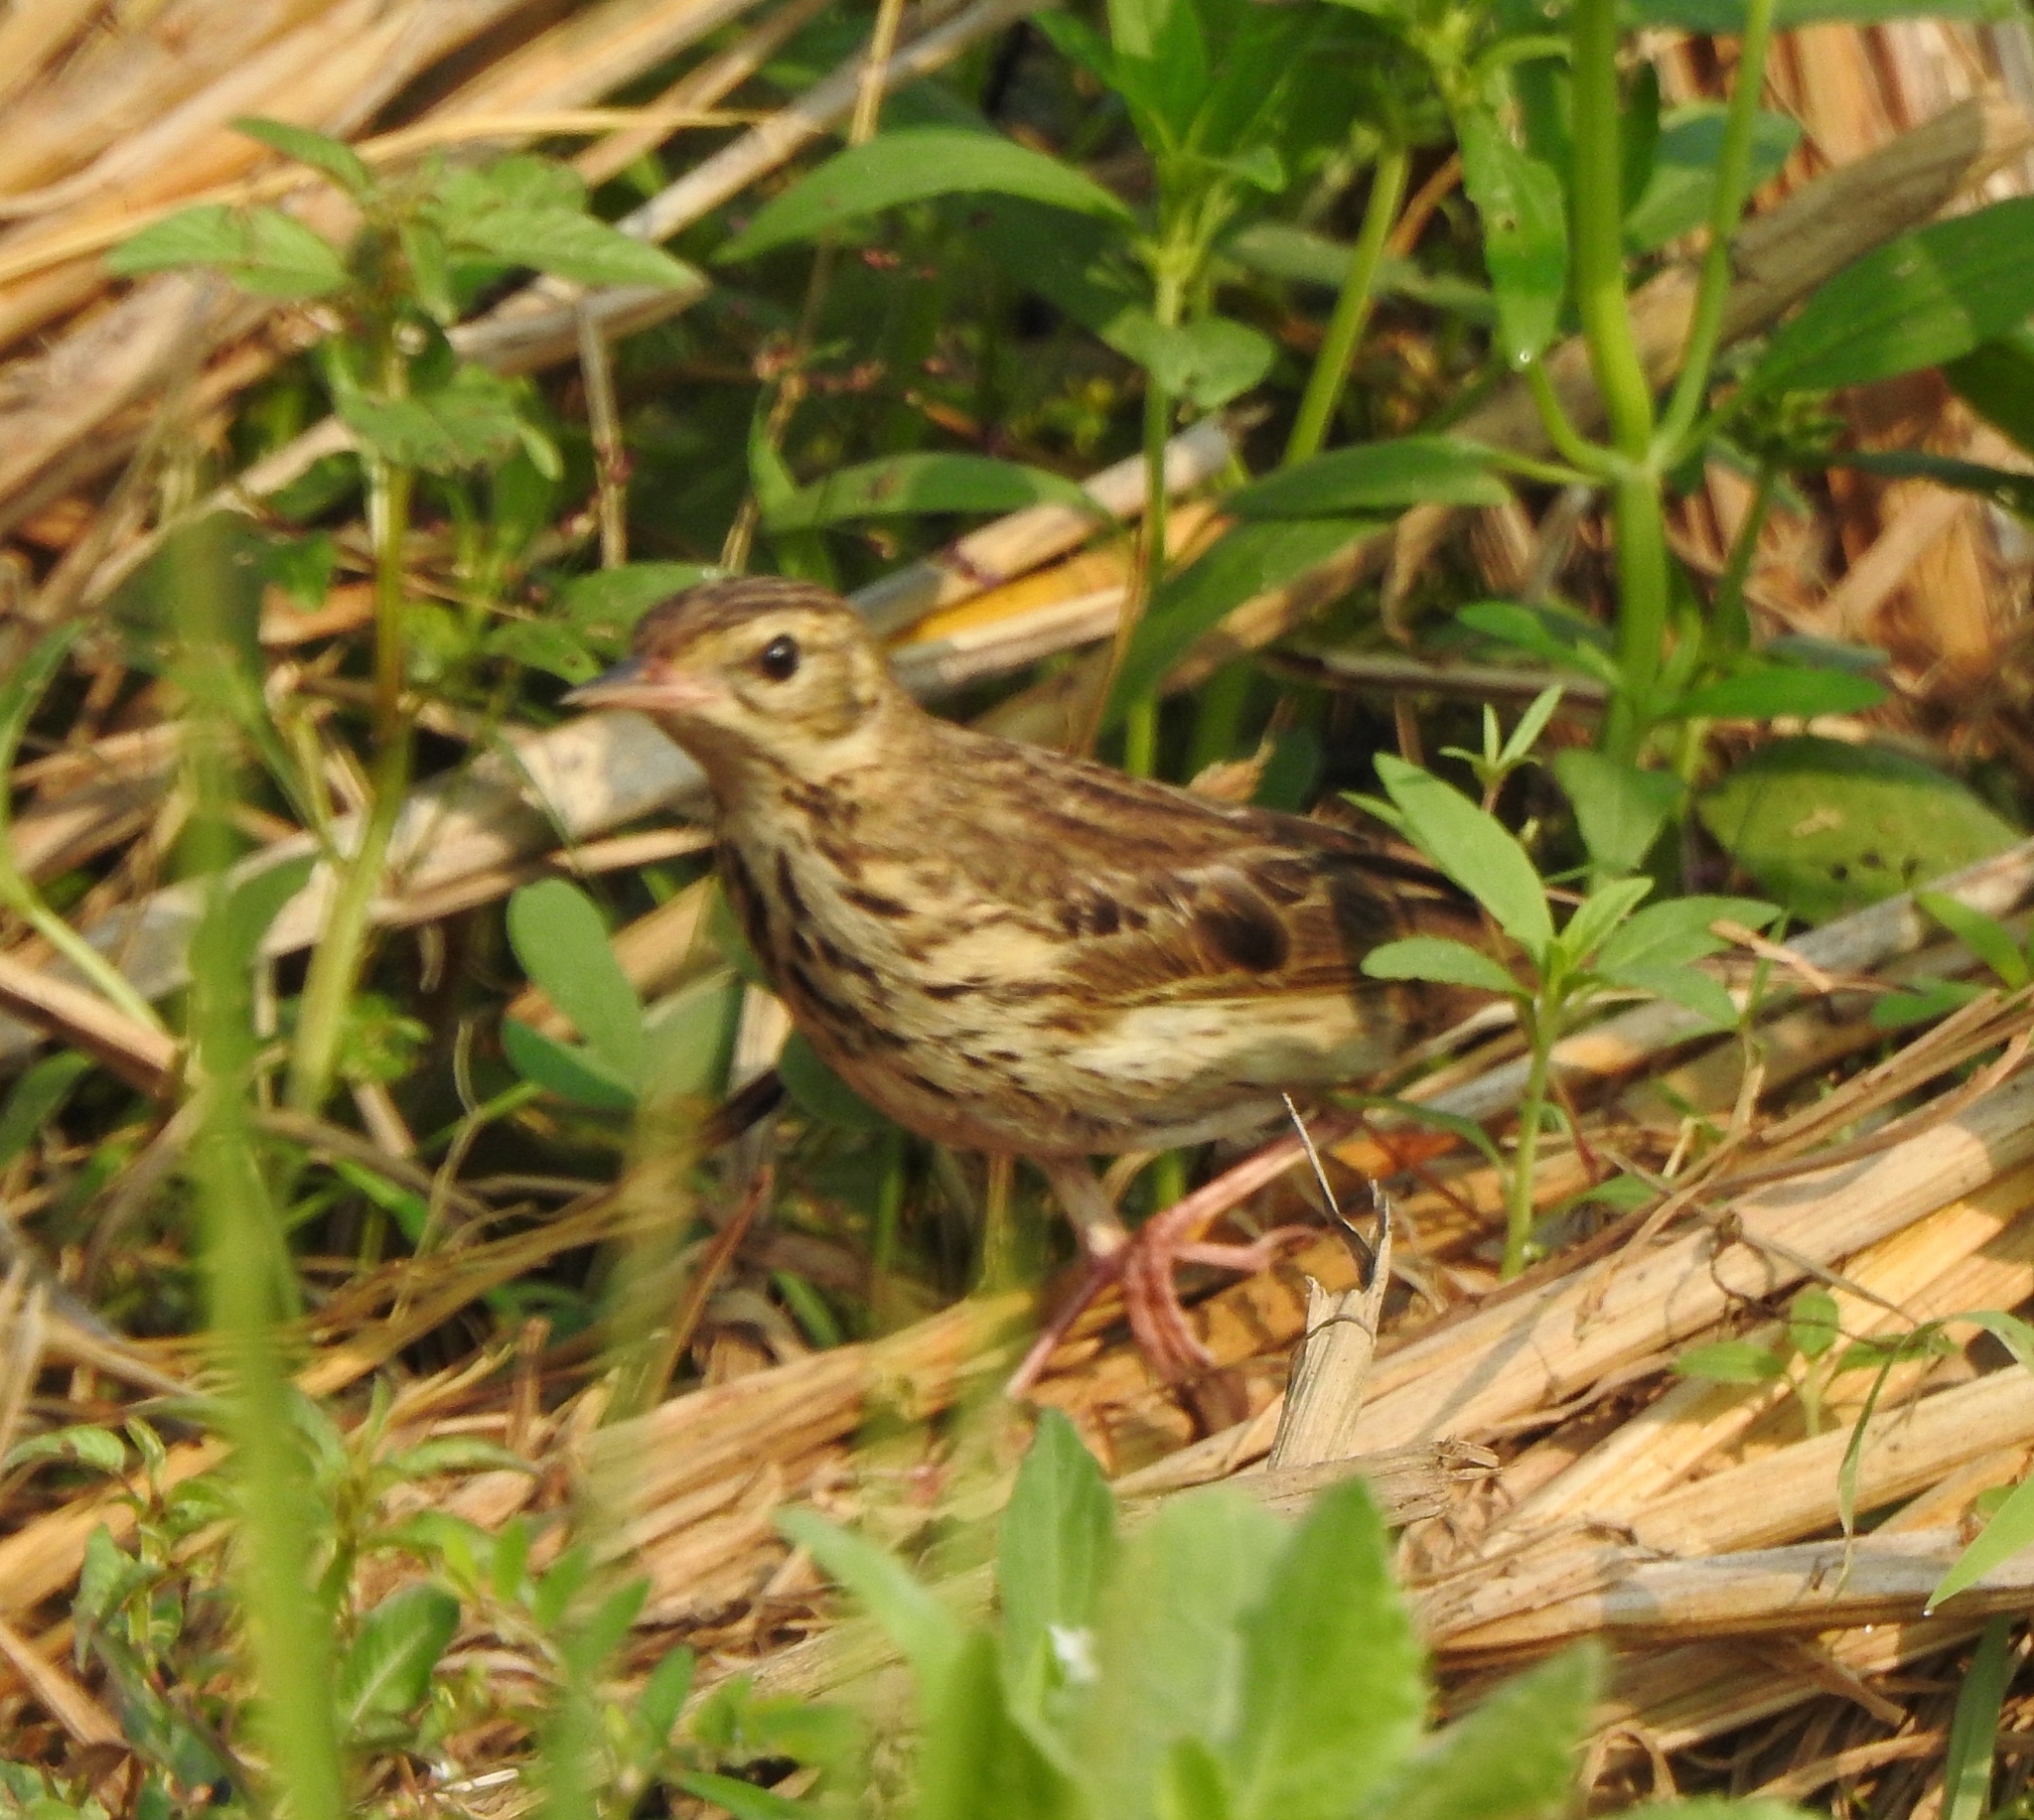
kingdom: Animalia
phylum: Chordata
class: Aves
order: Passeriformes
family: Motacillidae
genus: Anthus
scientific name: Anthus trivialis
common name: Tree pipit
